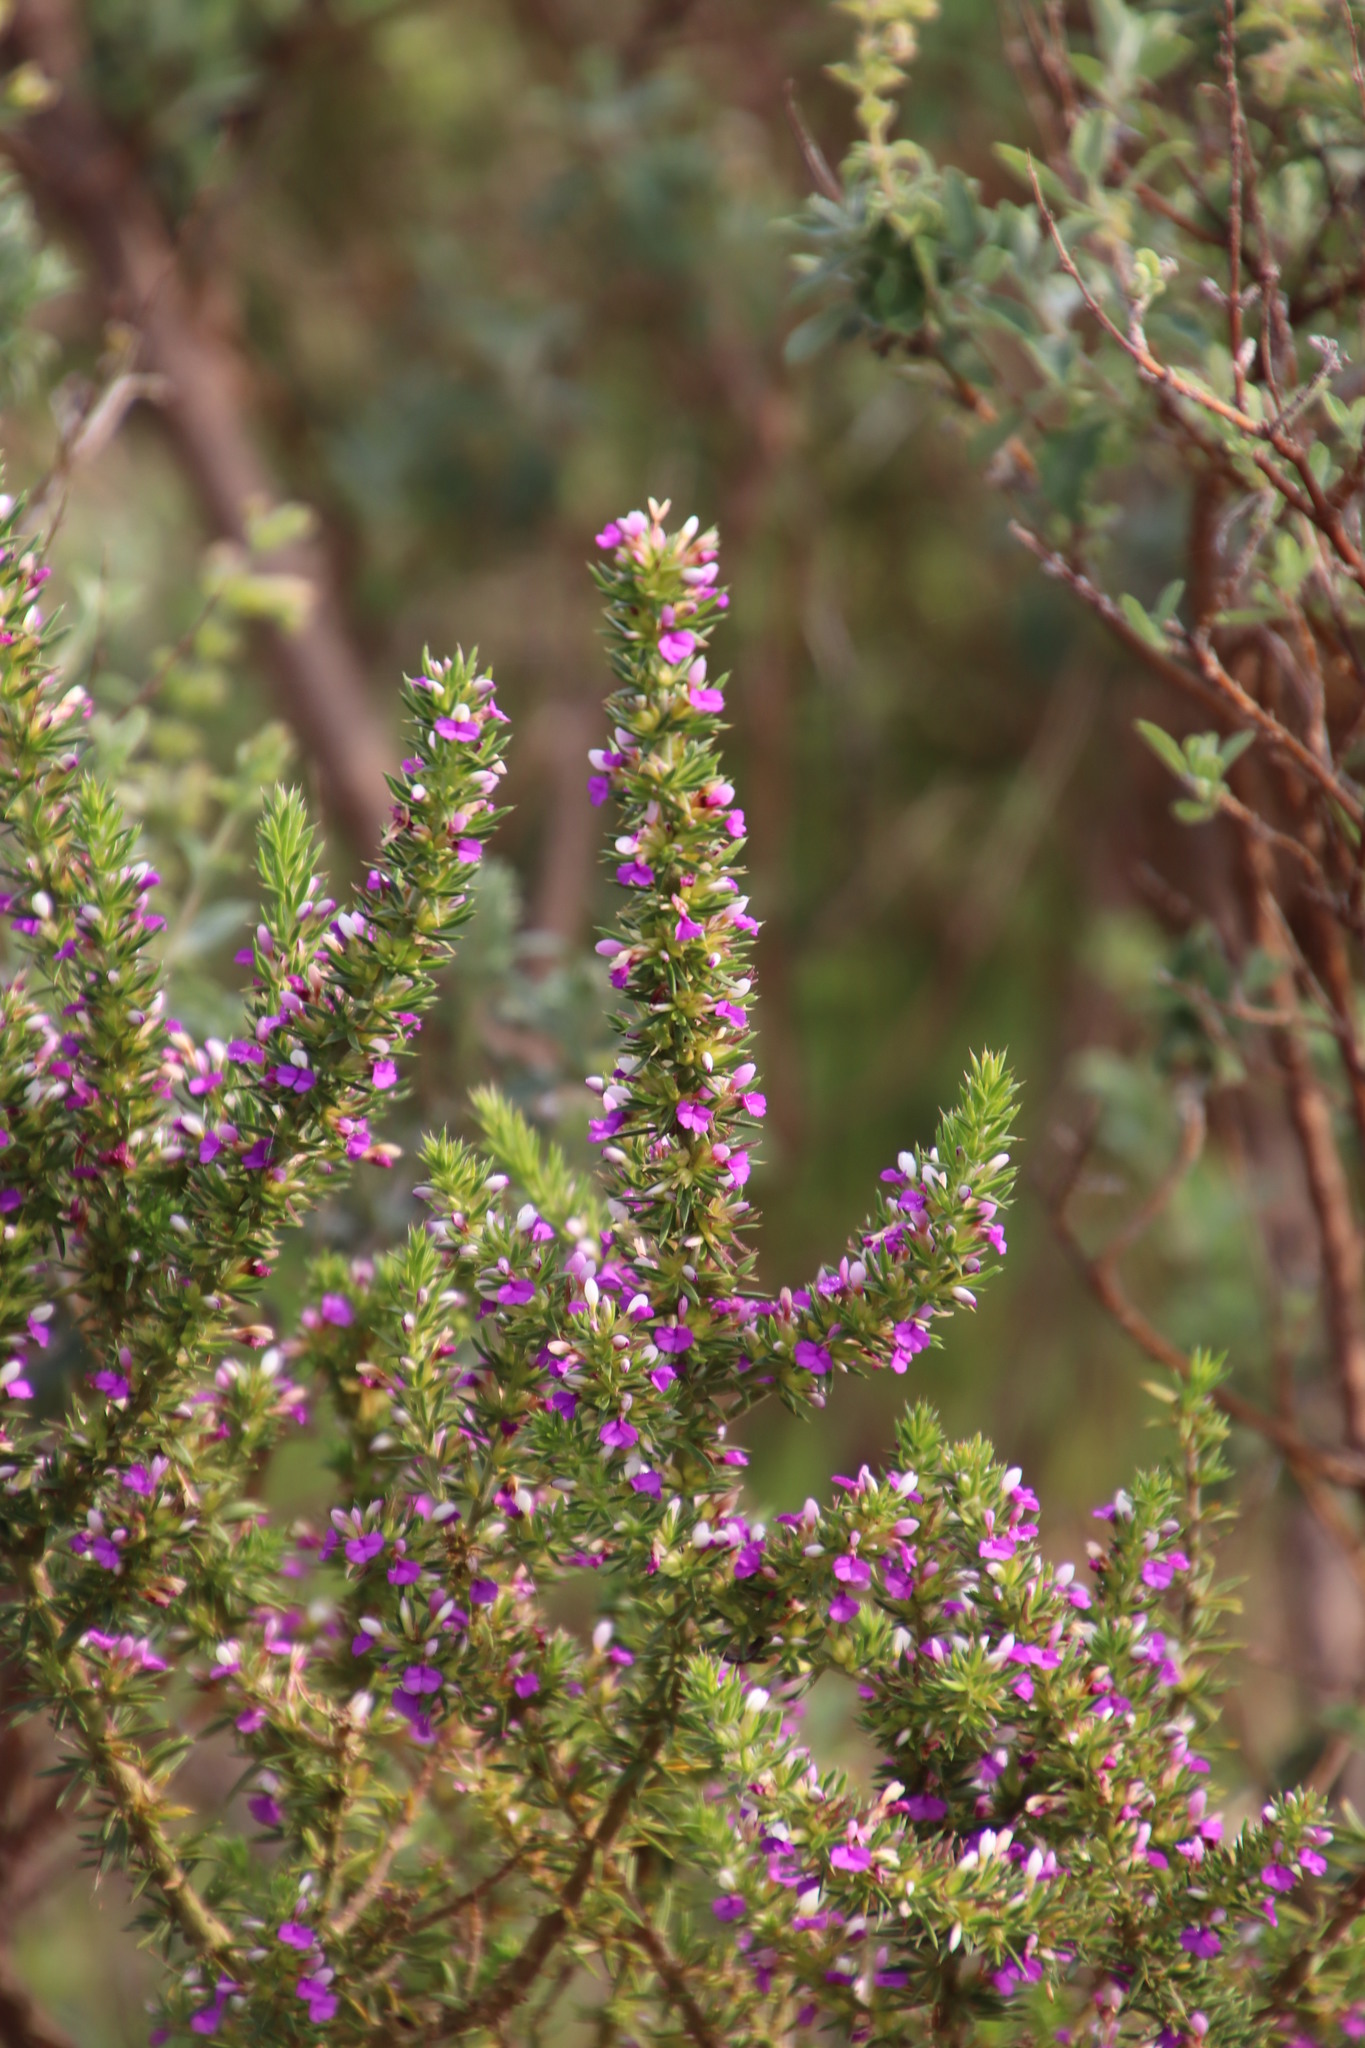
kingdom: Plantae
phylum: Tracheophyta
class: Magnoliopsida
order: Fabales
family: Polygalaceae
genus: Muraltia
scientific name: Muraltia heisteria
